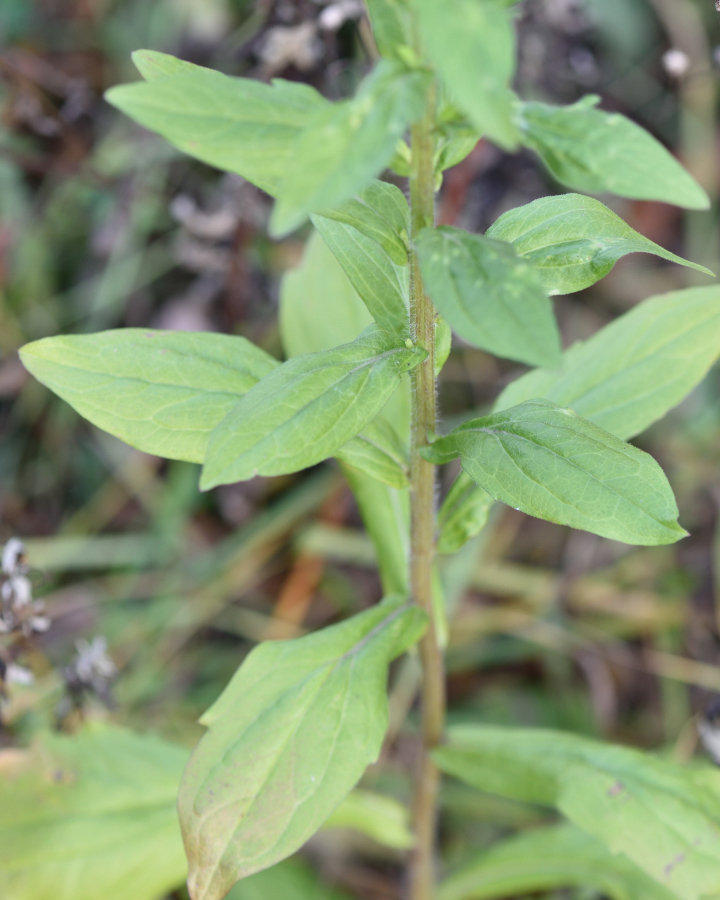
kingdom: Plantae
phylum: Tracheophyta
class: Magnoliopsida
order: Asterales
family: Asteraceae
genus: Erigeron
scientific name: Erigeron annuus
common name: Tall fleabane
